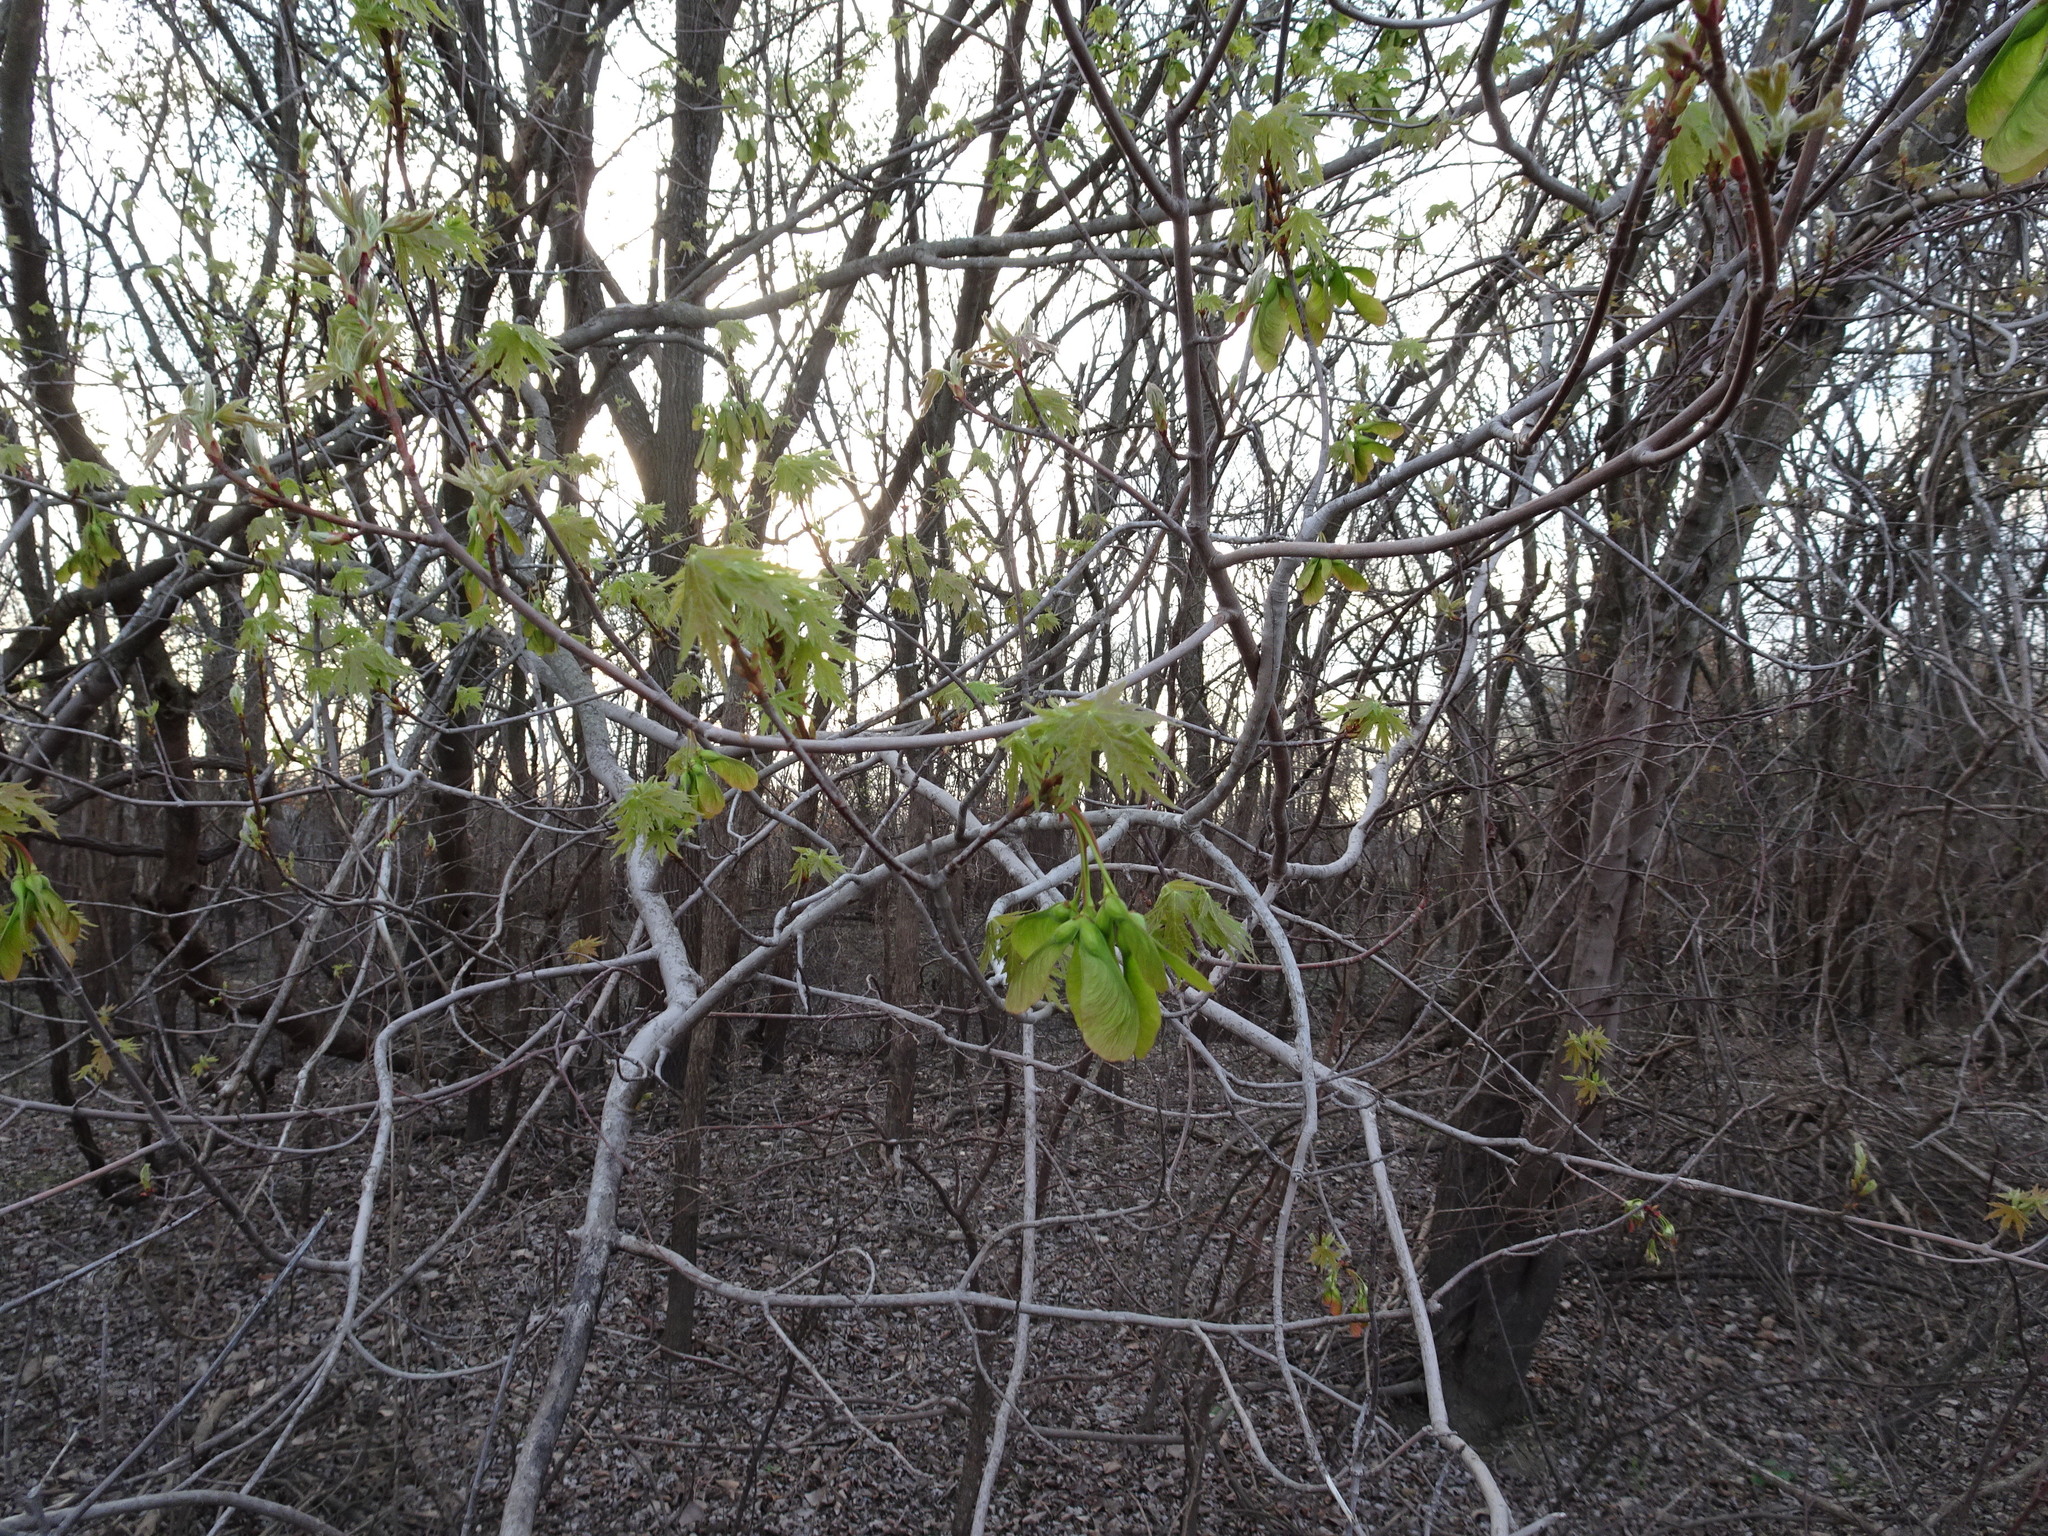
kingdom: Plantae
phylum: Tracheophyta
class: Magnoliopsida
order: Sapindales
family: Sapindaceae
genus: Acer
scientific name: Acer saccharinum
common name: Silver maple
